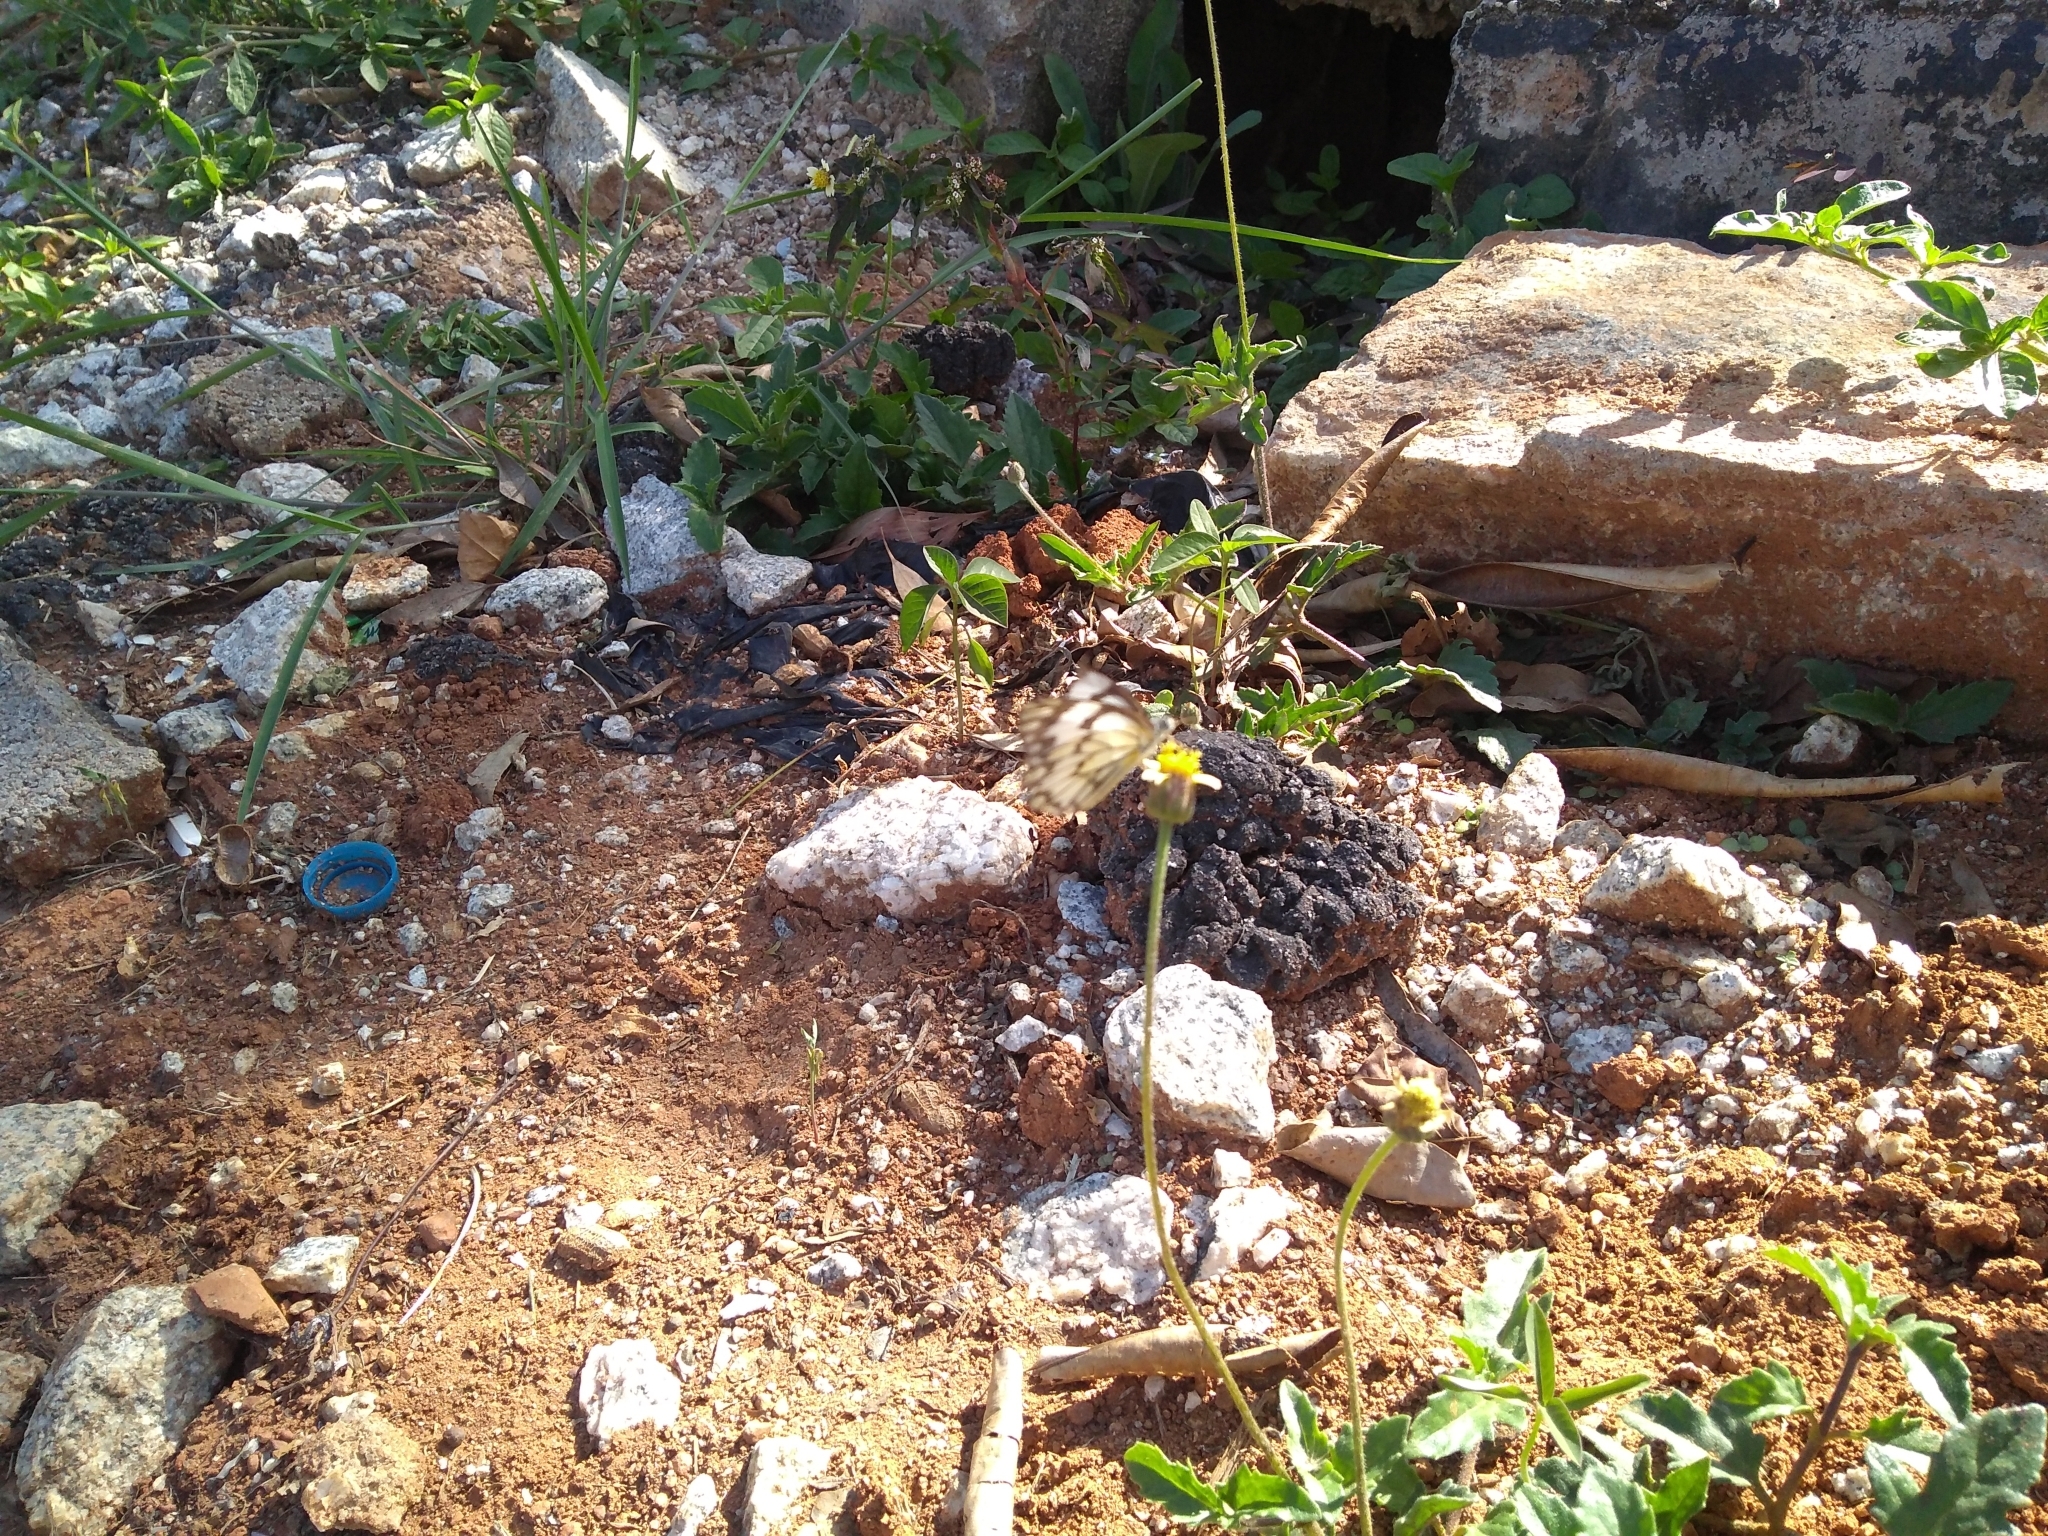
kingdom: Animalia
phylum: Arthropoda
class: Insecta
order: Lepidoptera
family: Pieridae
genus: Belenois
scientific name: Belenois aurota
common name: Brown-veined white
